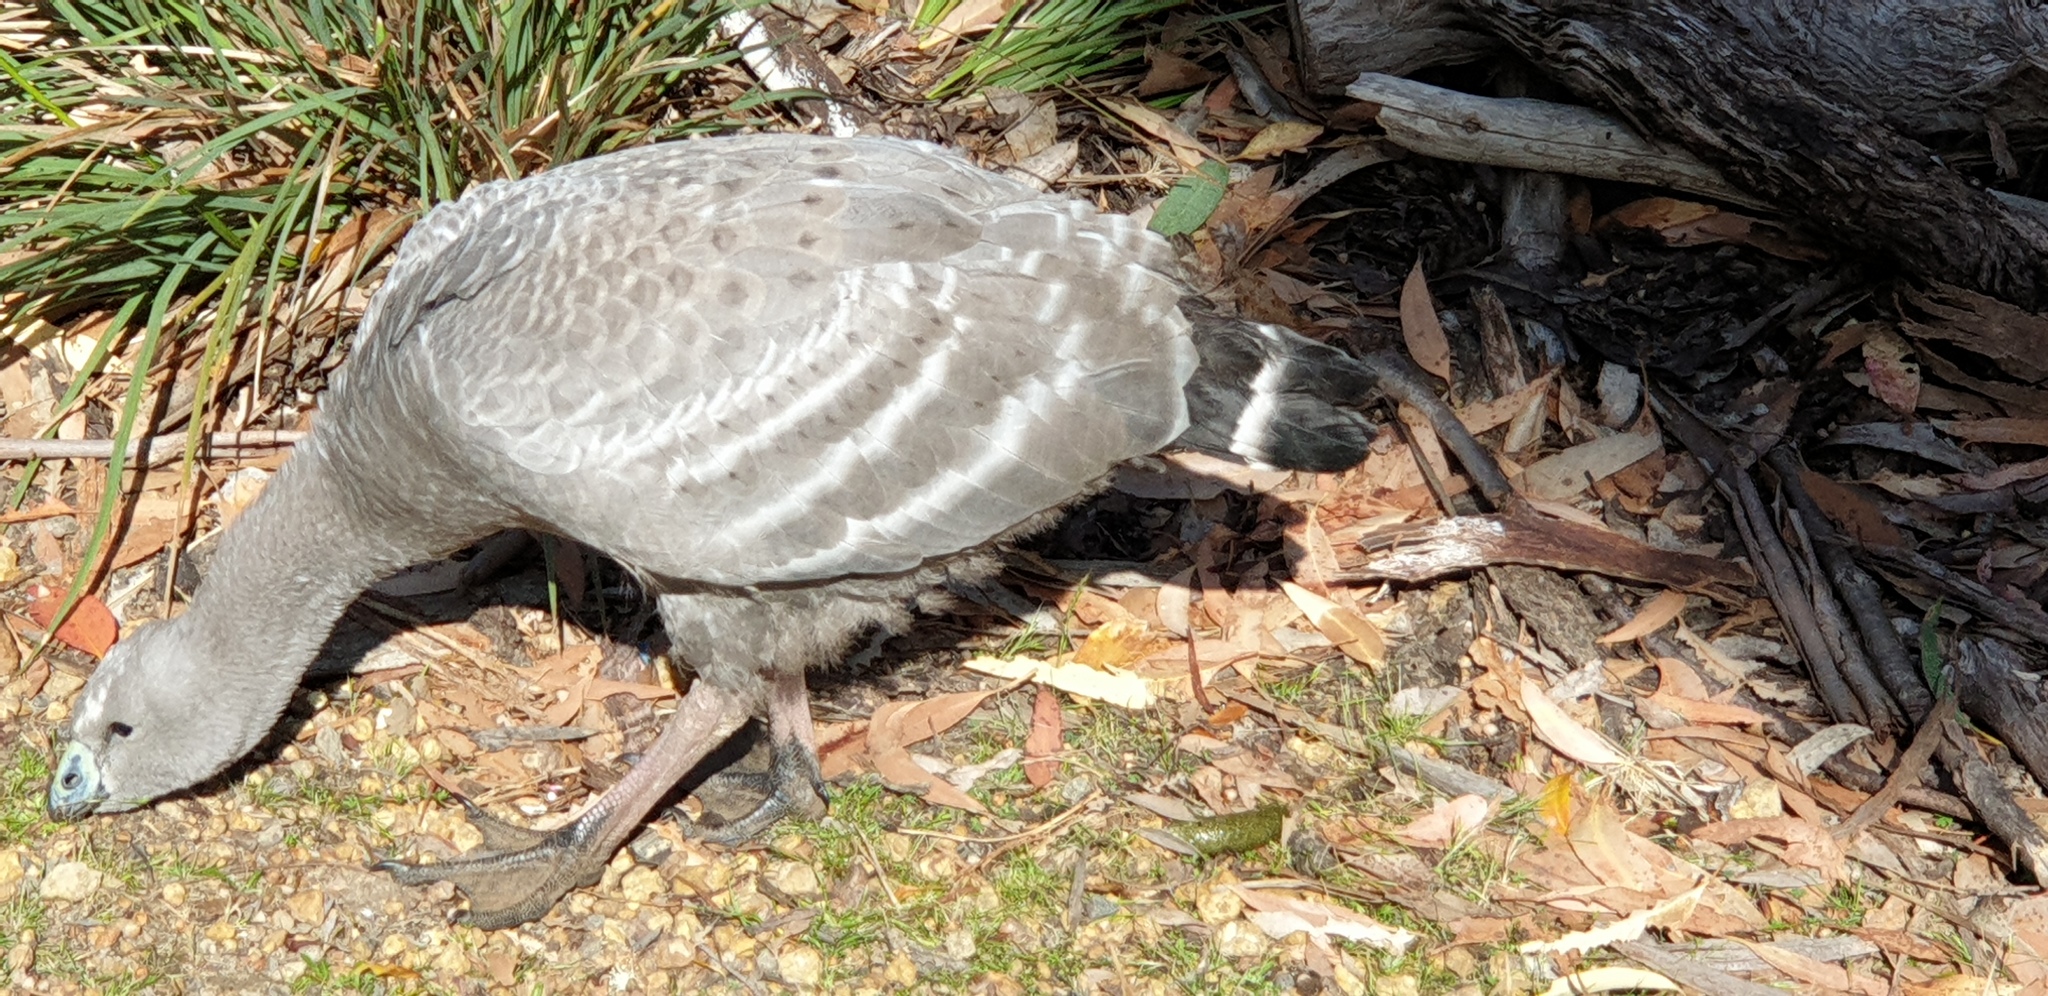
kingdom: Animalia
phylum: Chordata
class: Aves
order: Anseriformes
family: Anatidae
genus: Cereopsis
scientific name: Cereopsis novaehollandiae
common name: Cape barren goose
